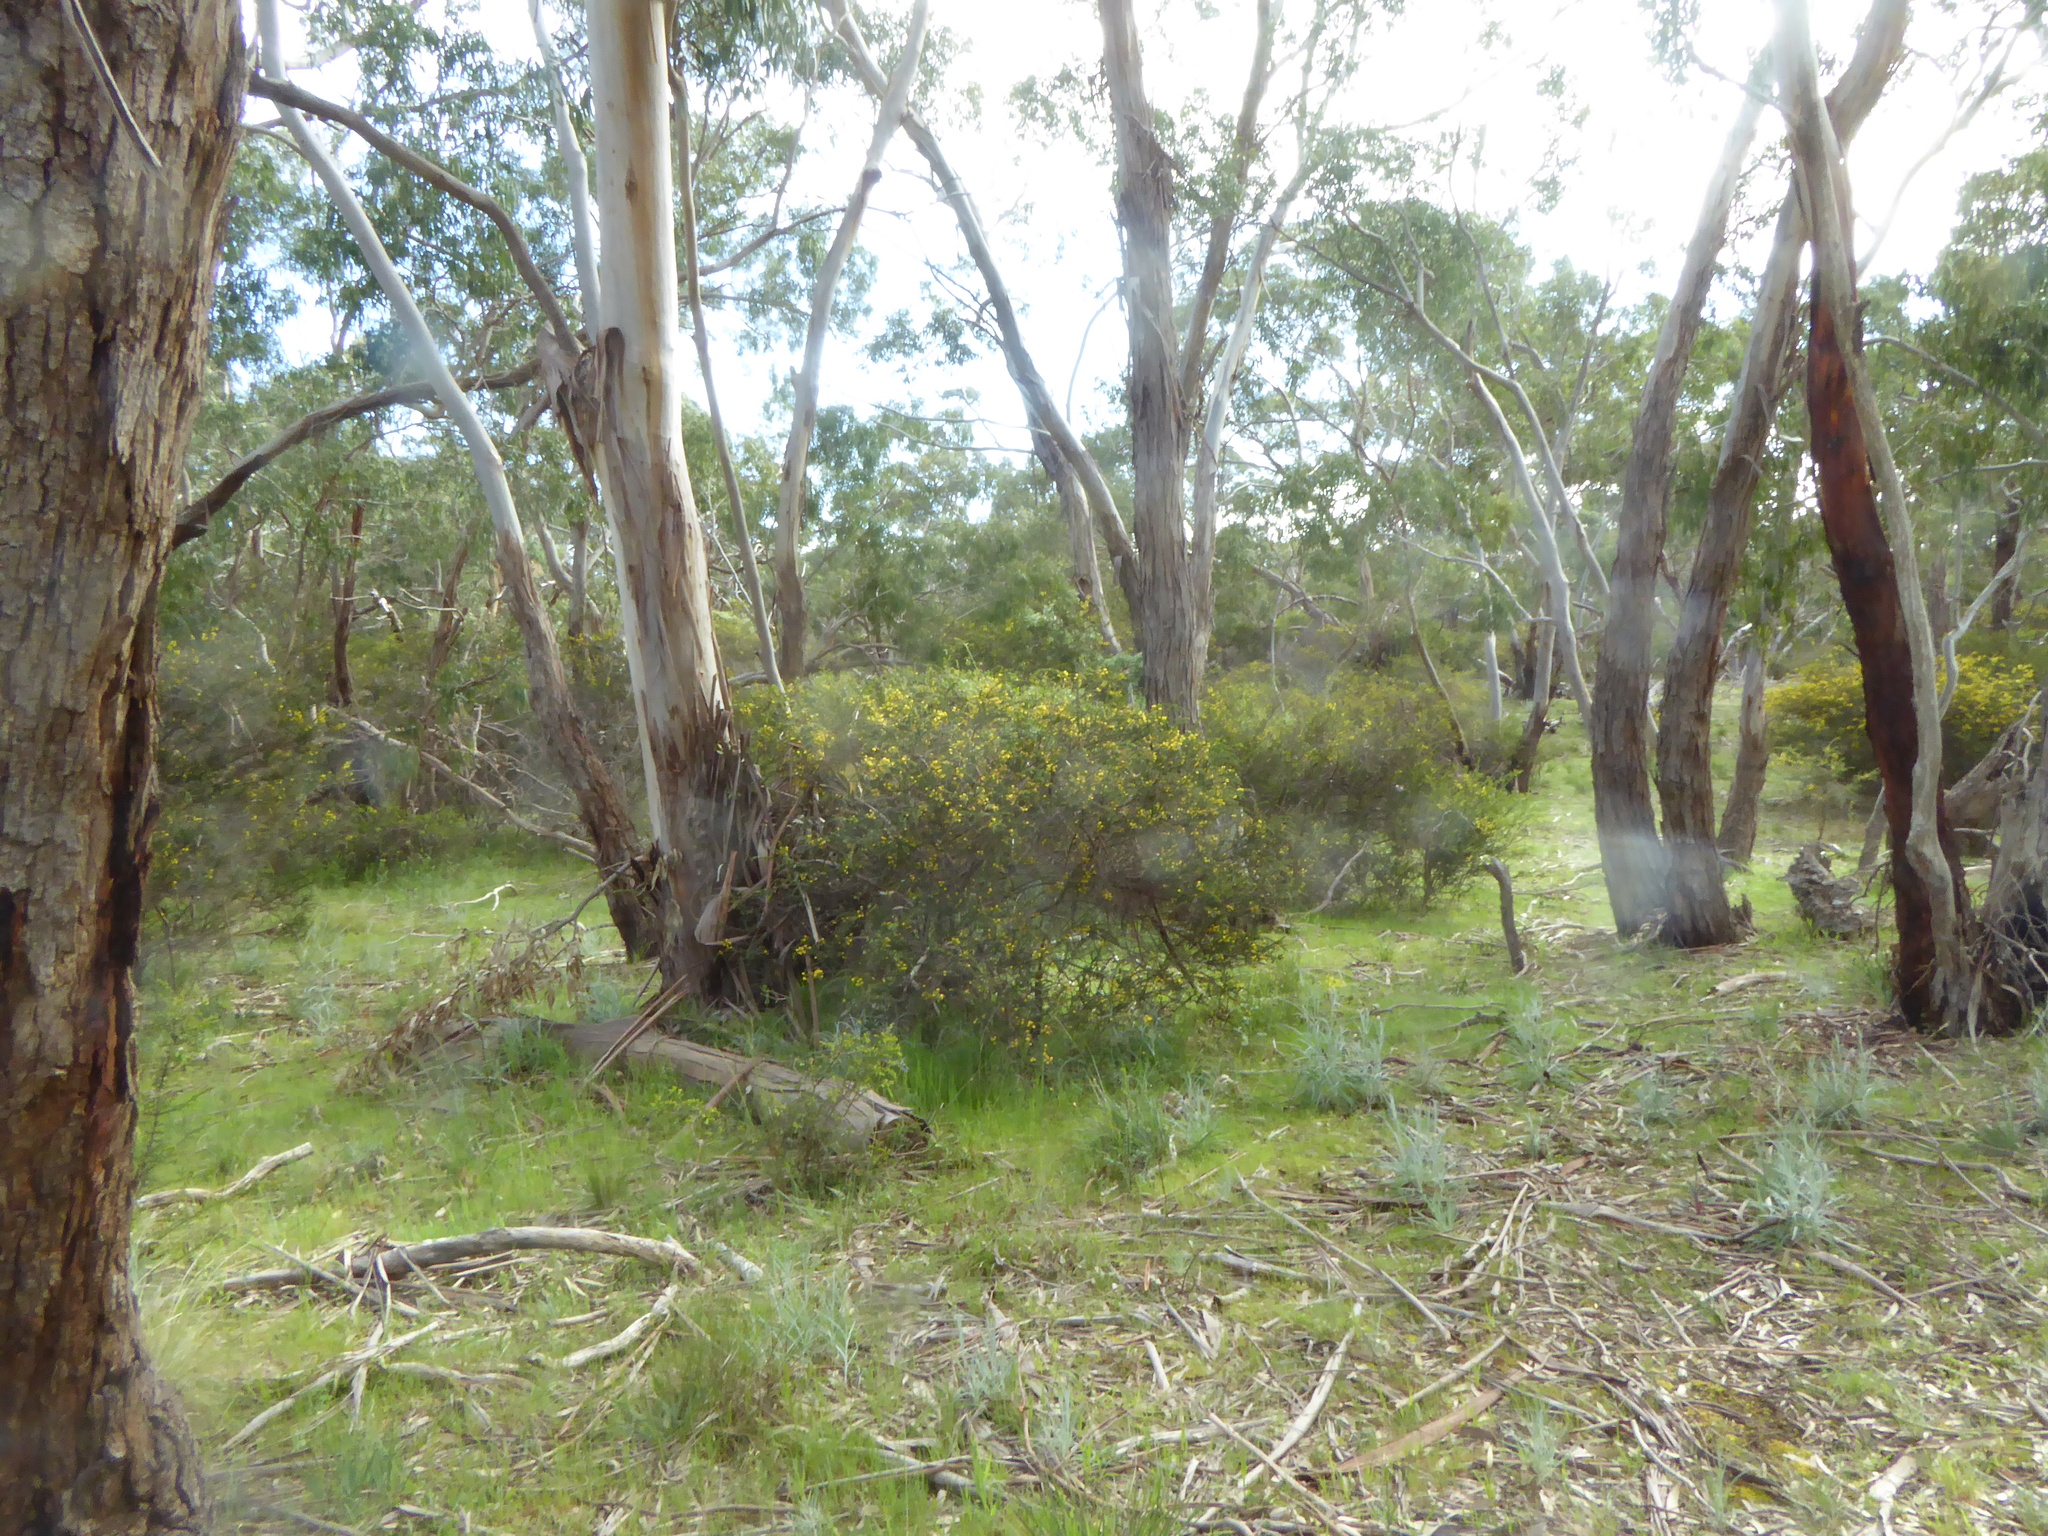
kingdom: Plantae
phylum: Tracheophyta
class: Magnoliopsida
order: Fabales
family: Fabaceae
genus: Acacia
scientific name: Acacia paradoxa
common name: Paradox acacia
